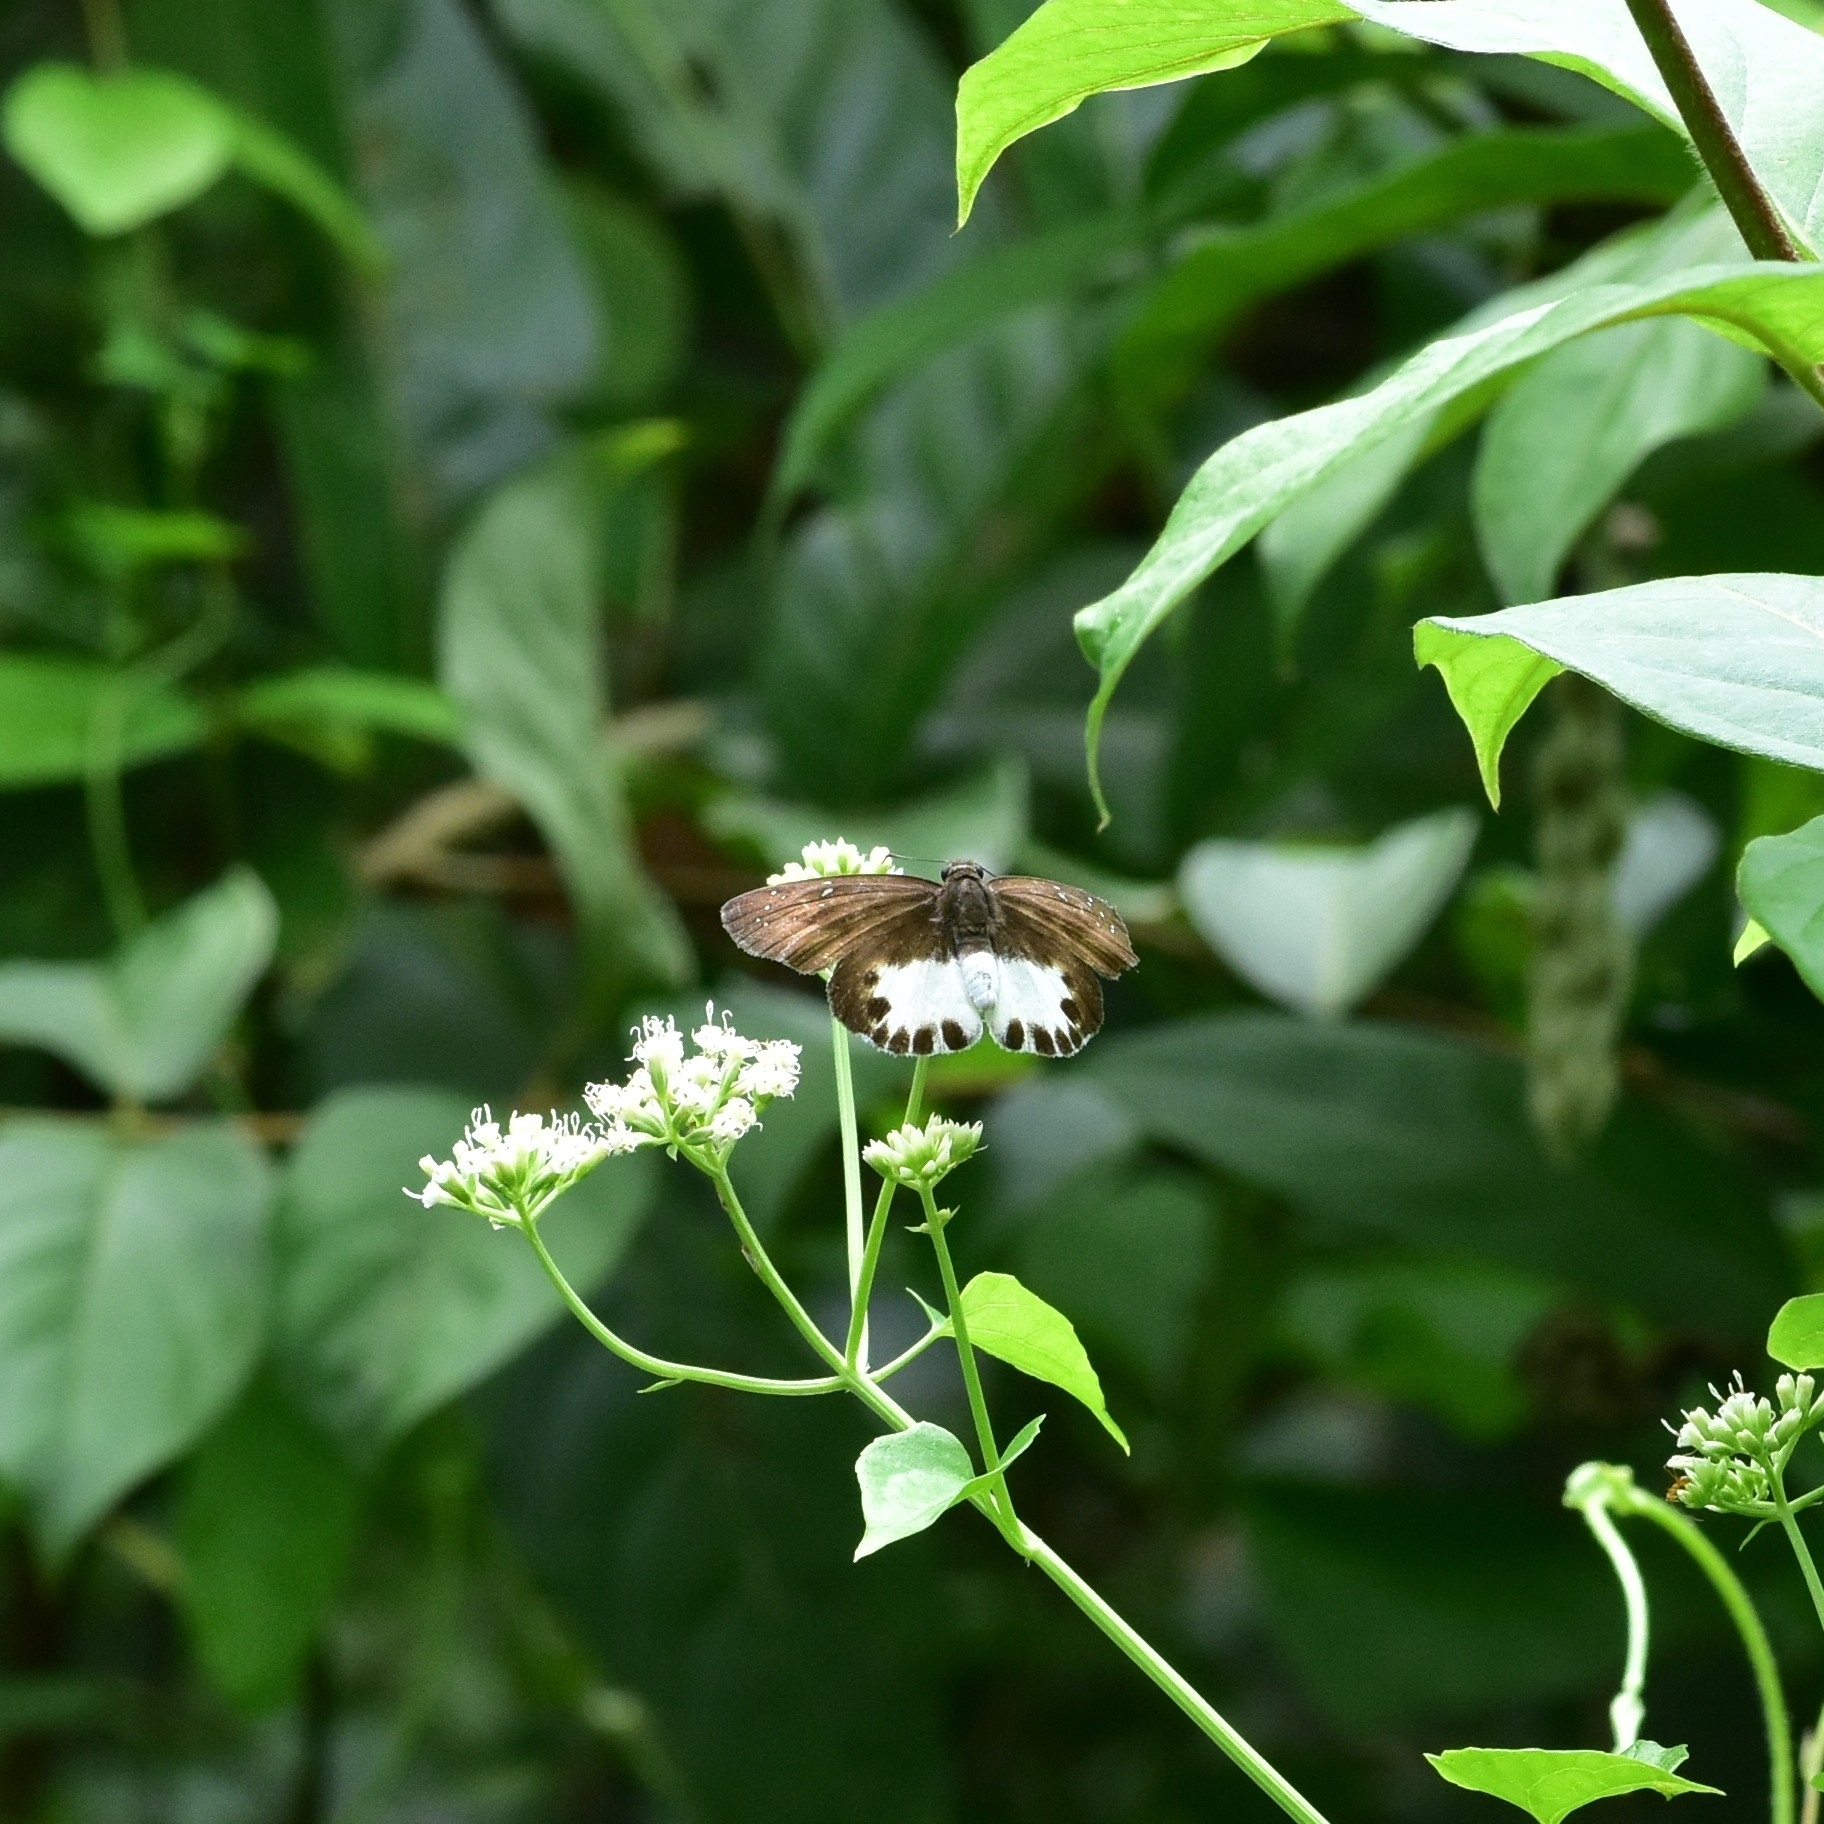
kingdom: Animalia
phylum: Arthropoda
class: Insecta
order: Lepidoptera
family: Hesperiidae
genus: Tagiades
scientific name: Tagiades litigiosa
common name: Water snow flat
